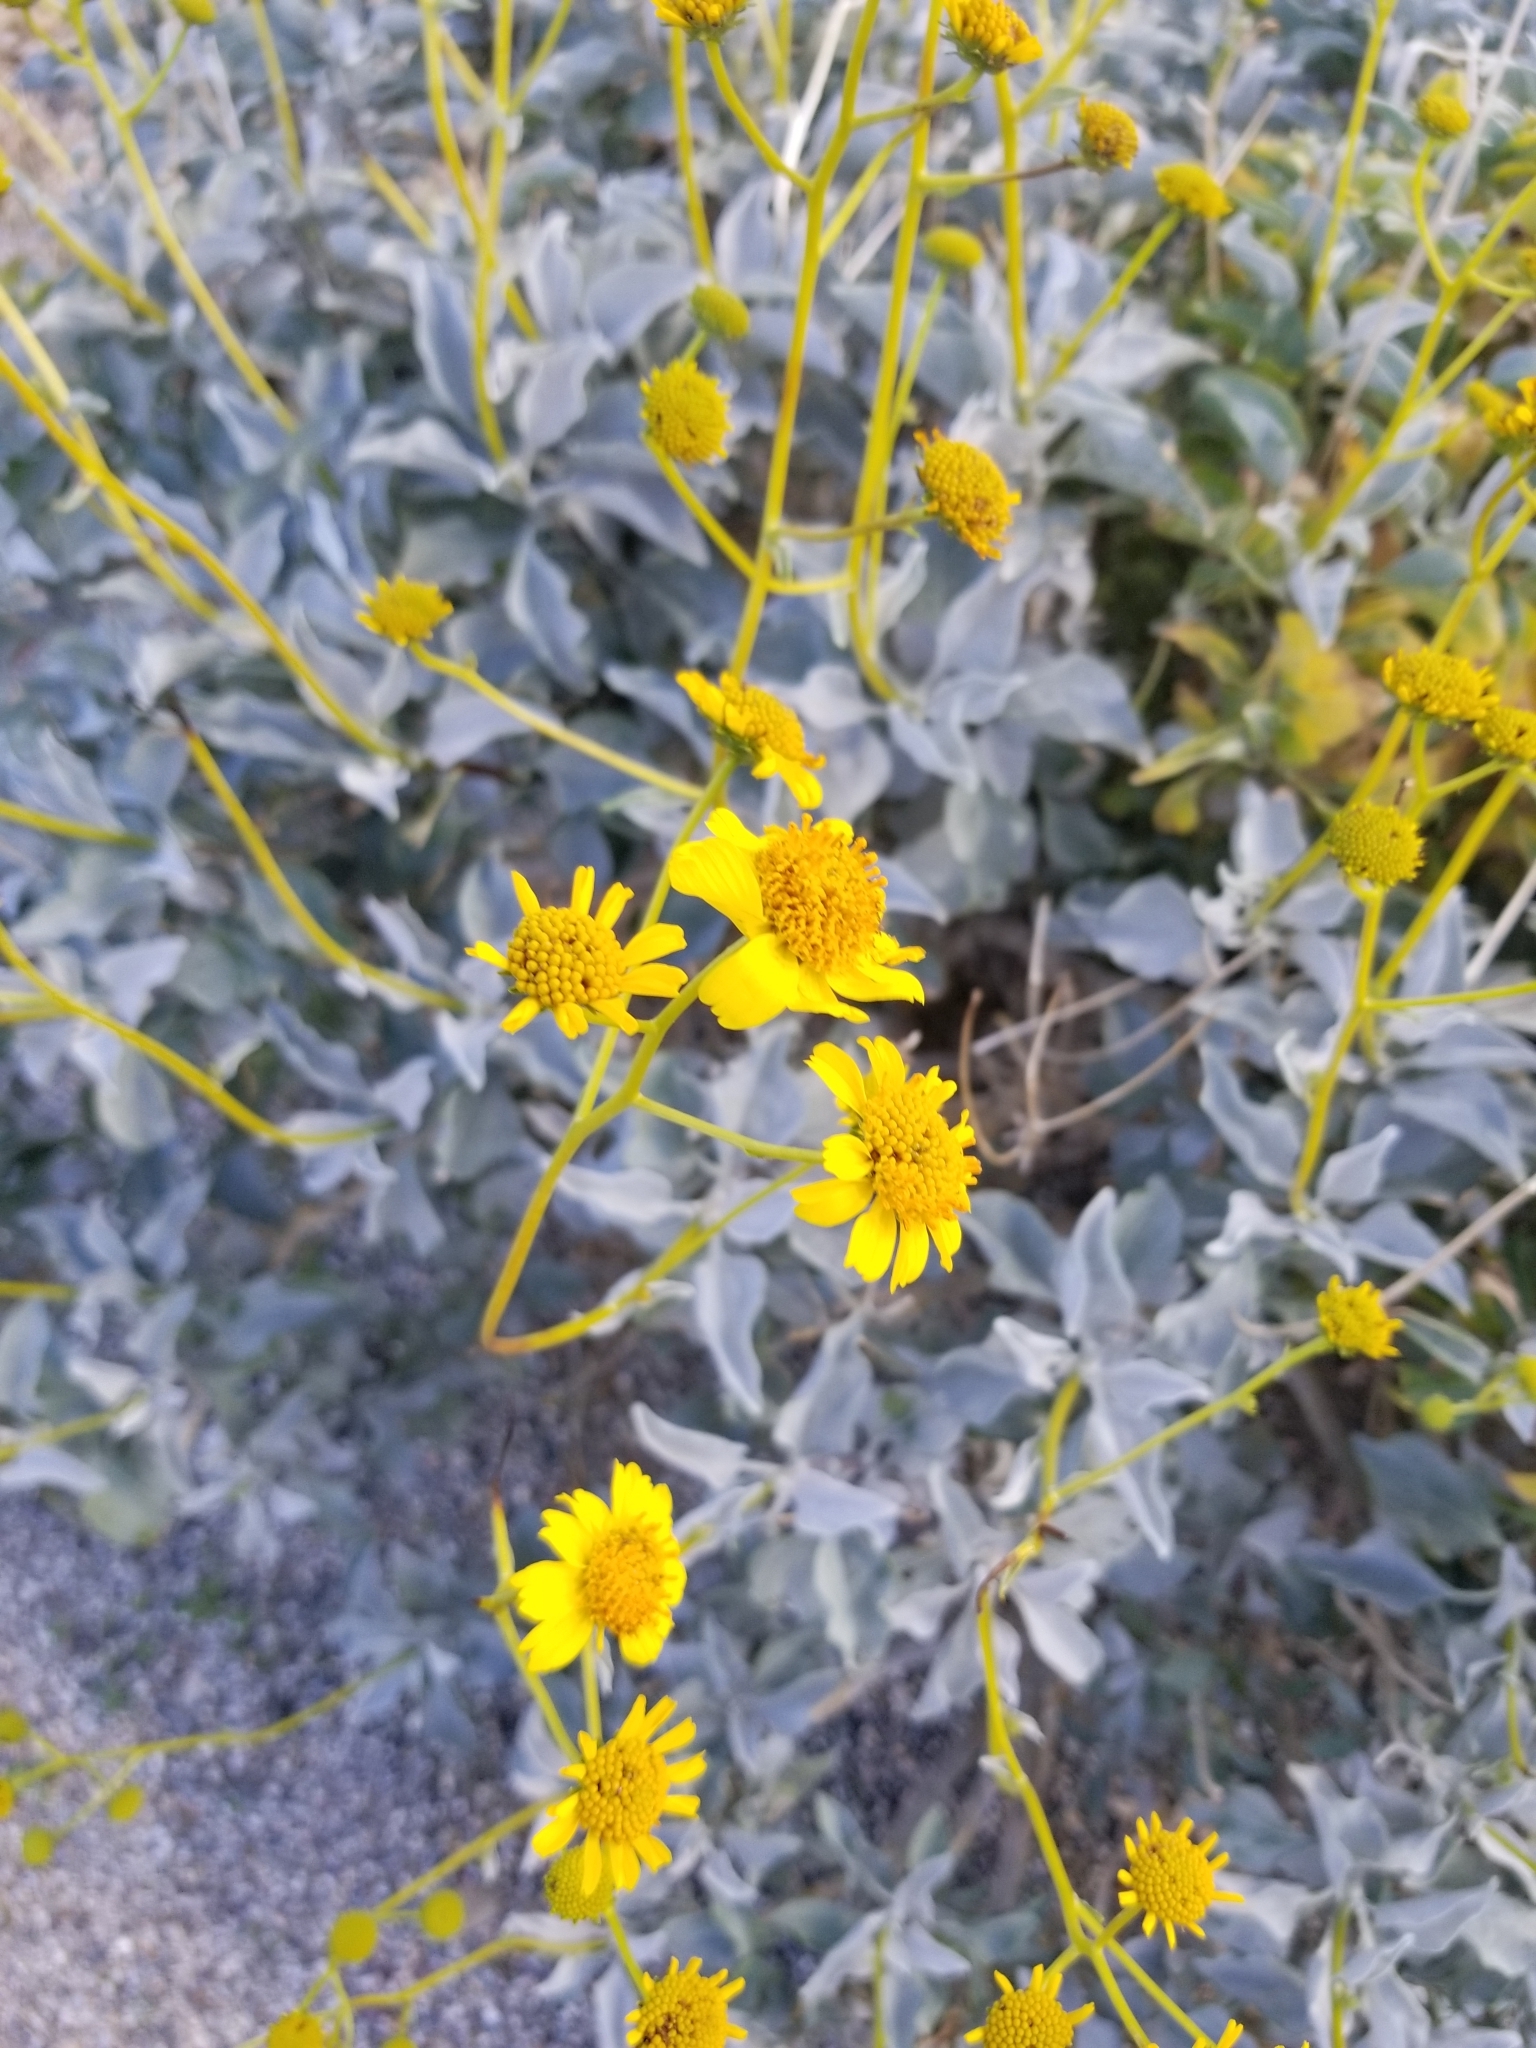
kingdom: Plantae
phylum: Tracheophyta
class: Magnoliopsida
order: Asterales
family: Asteraceae
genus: Encelia
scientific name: Encelia farinosa
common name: Brittlebush
